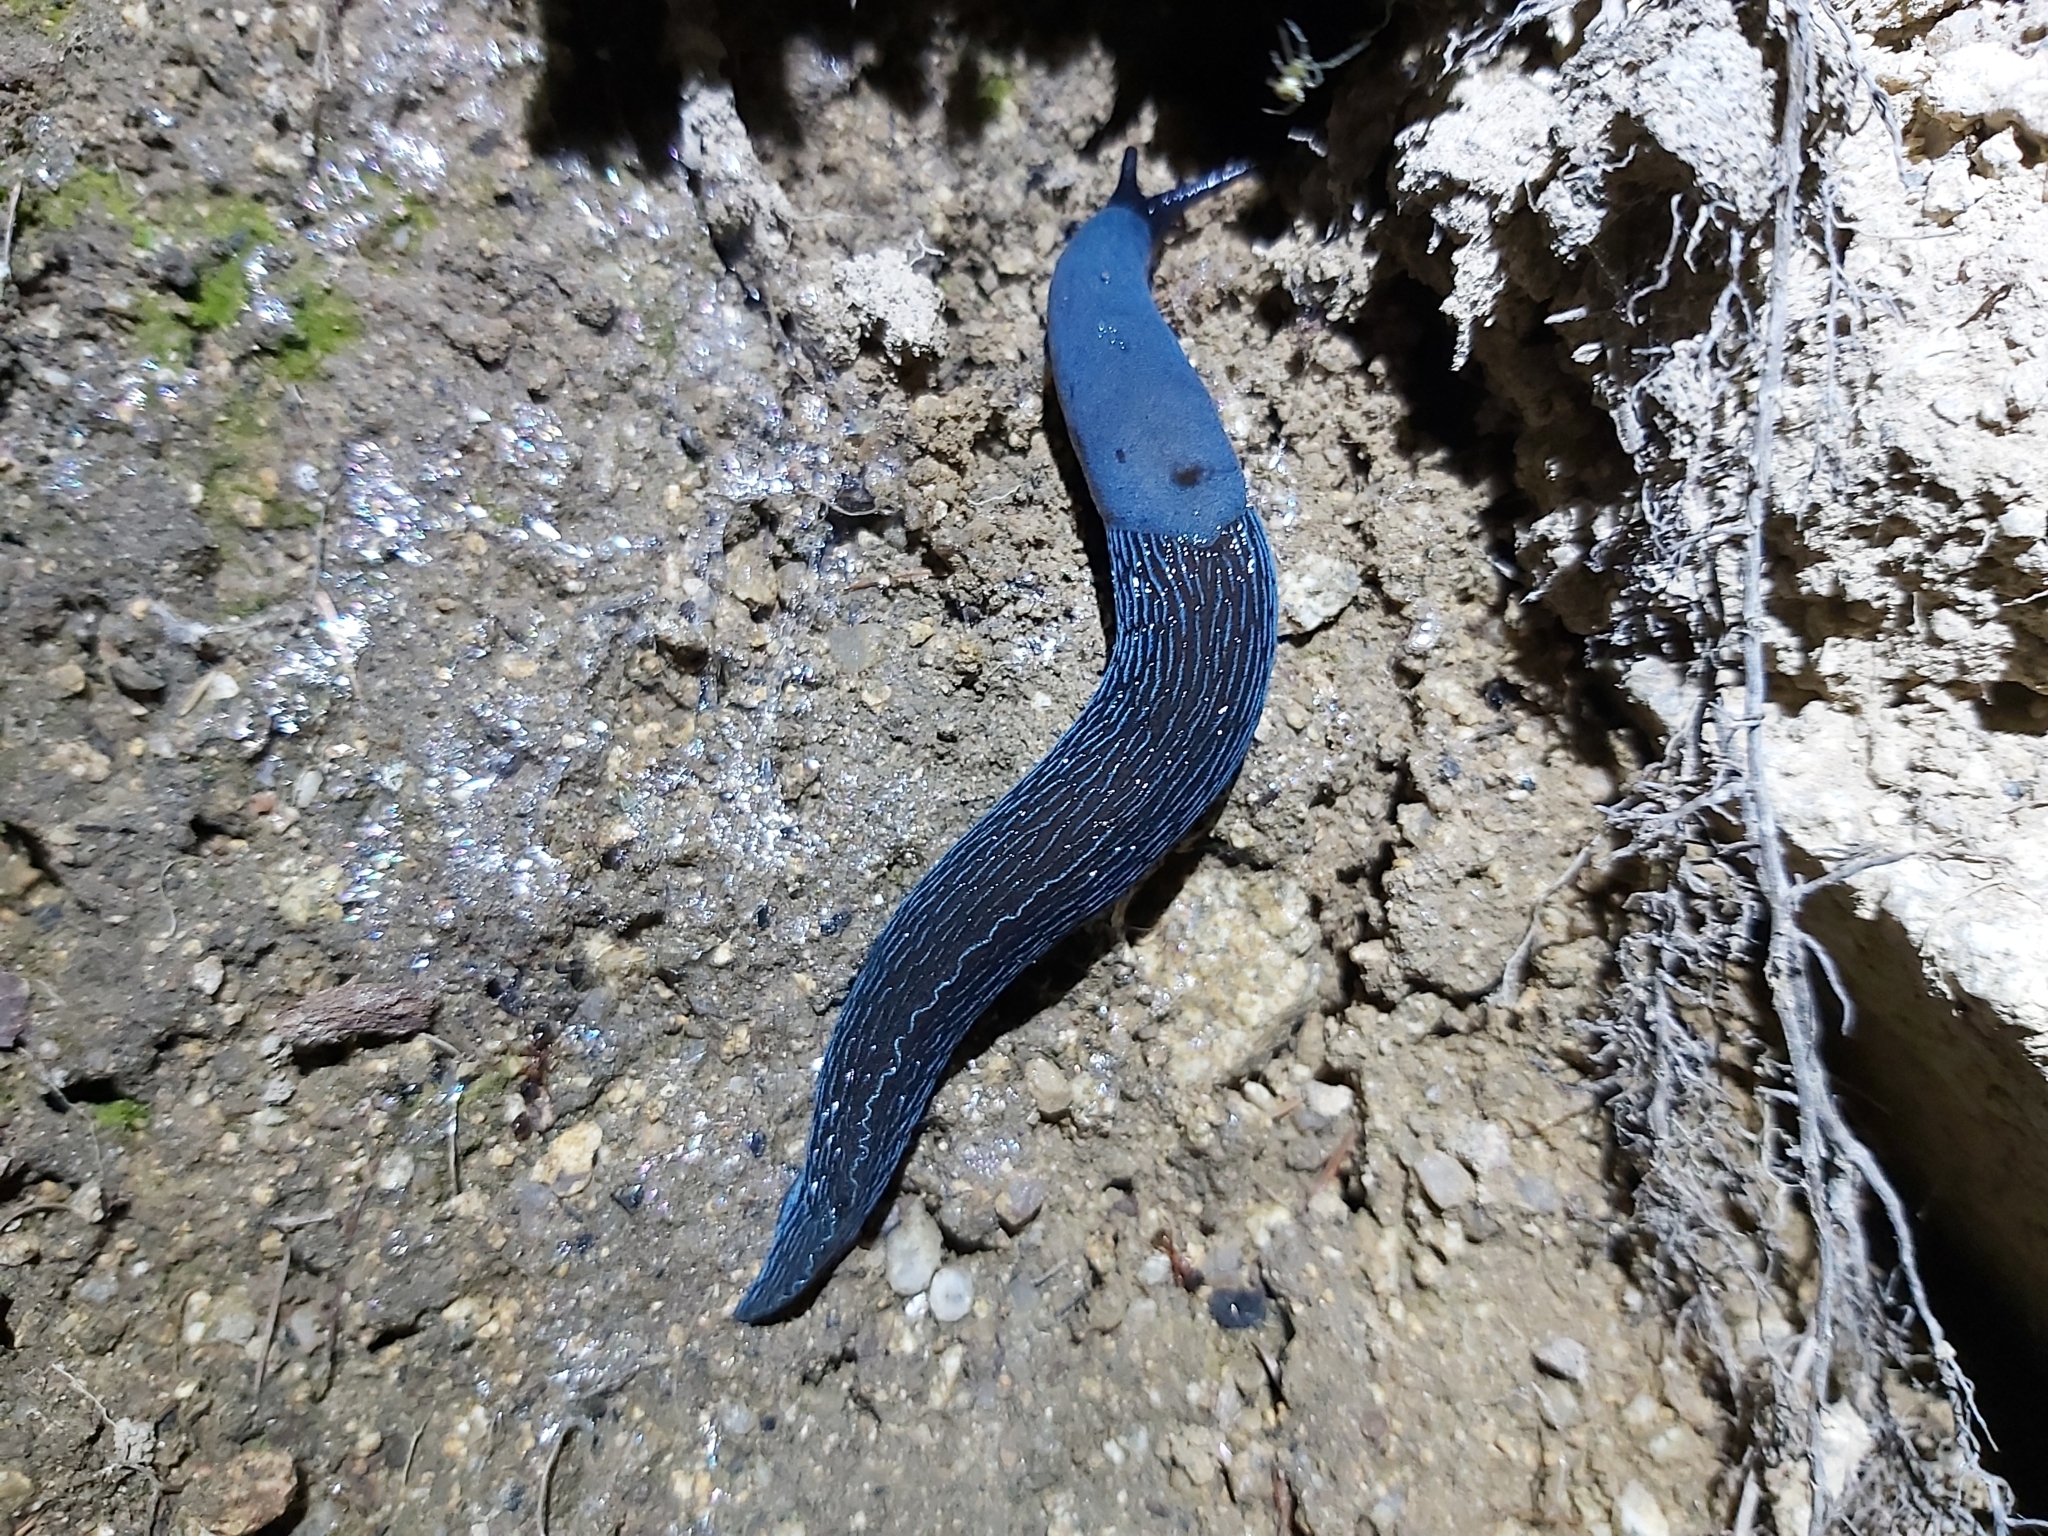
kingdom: Animalia
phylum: Mollusca
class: Gastropoda
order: Stylommatophora
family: Limacidae
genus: Bielzia
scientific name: Bielzia coerulans
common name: Carpathian blue slug
